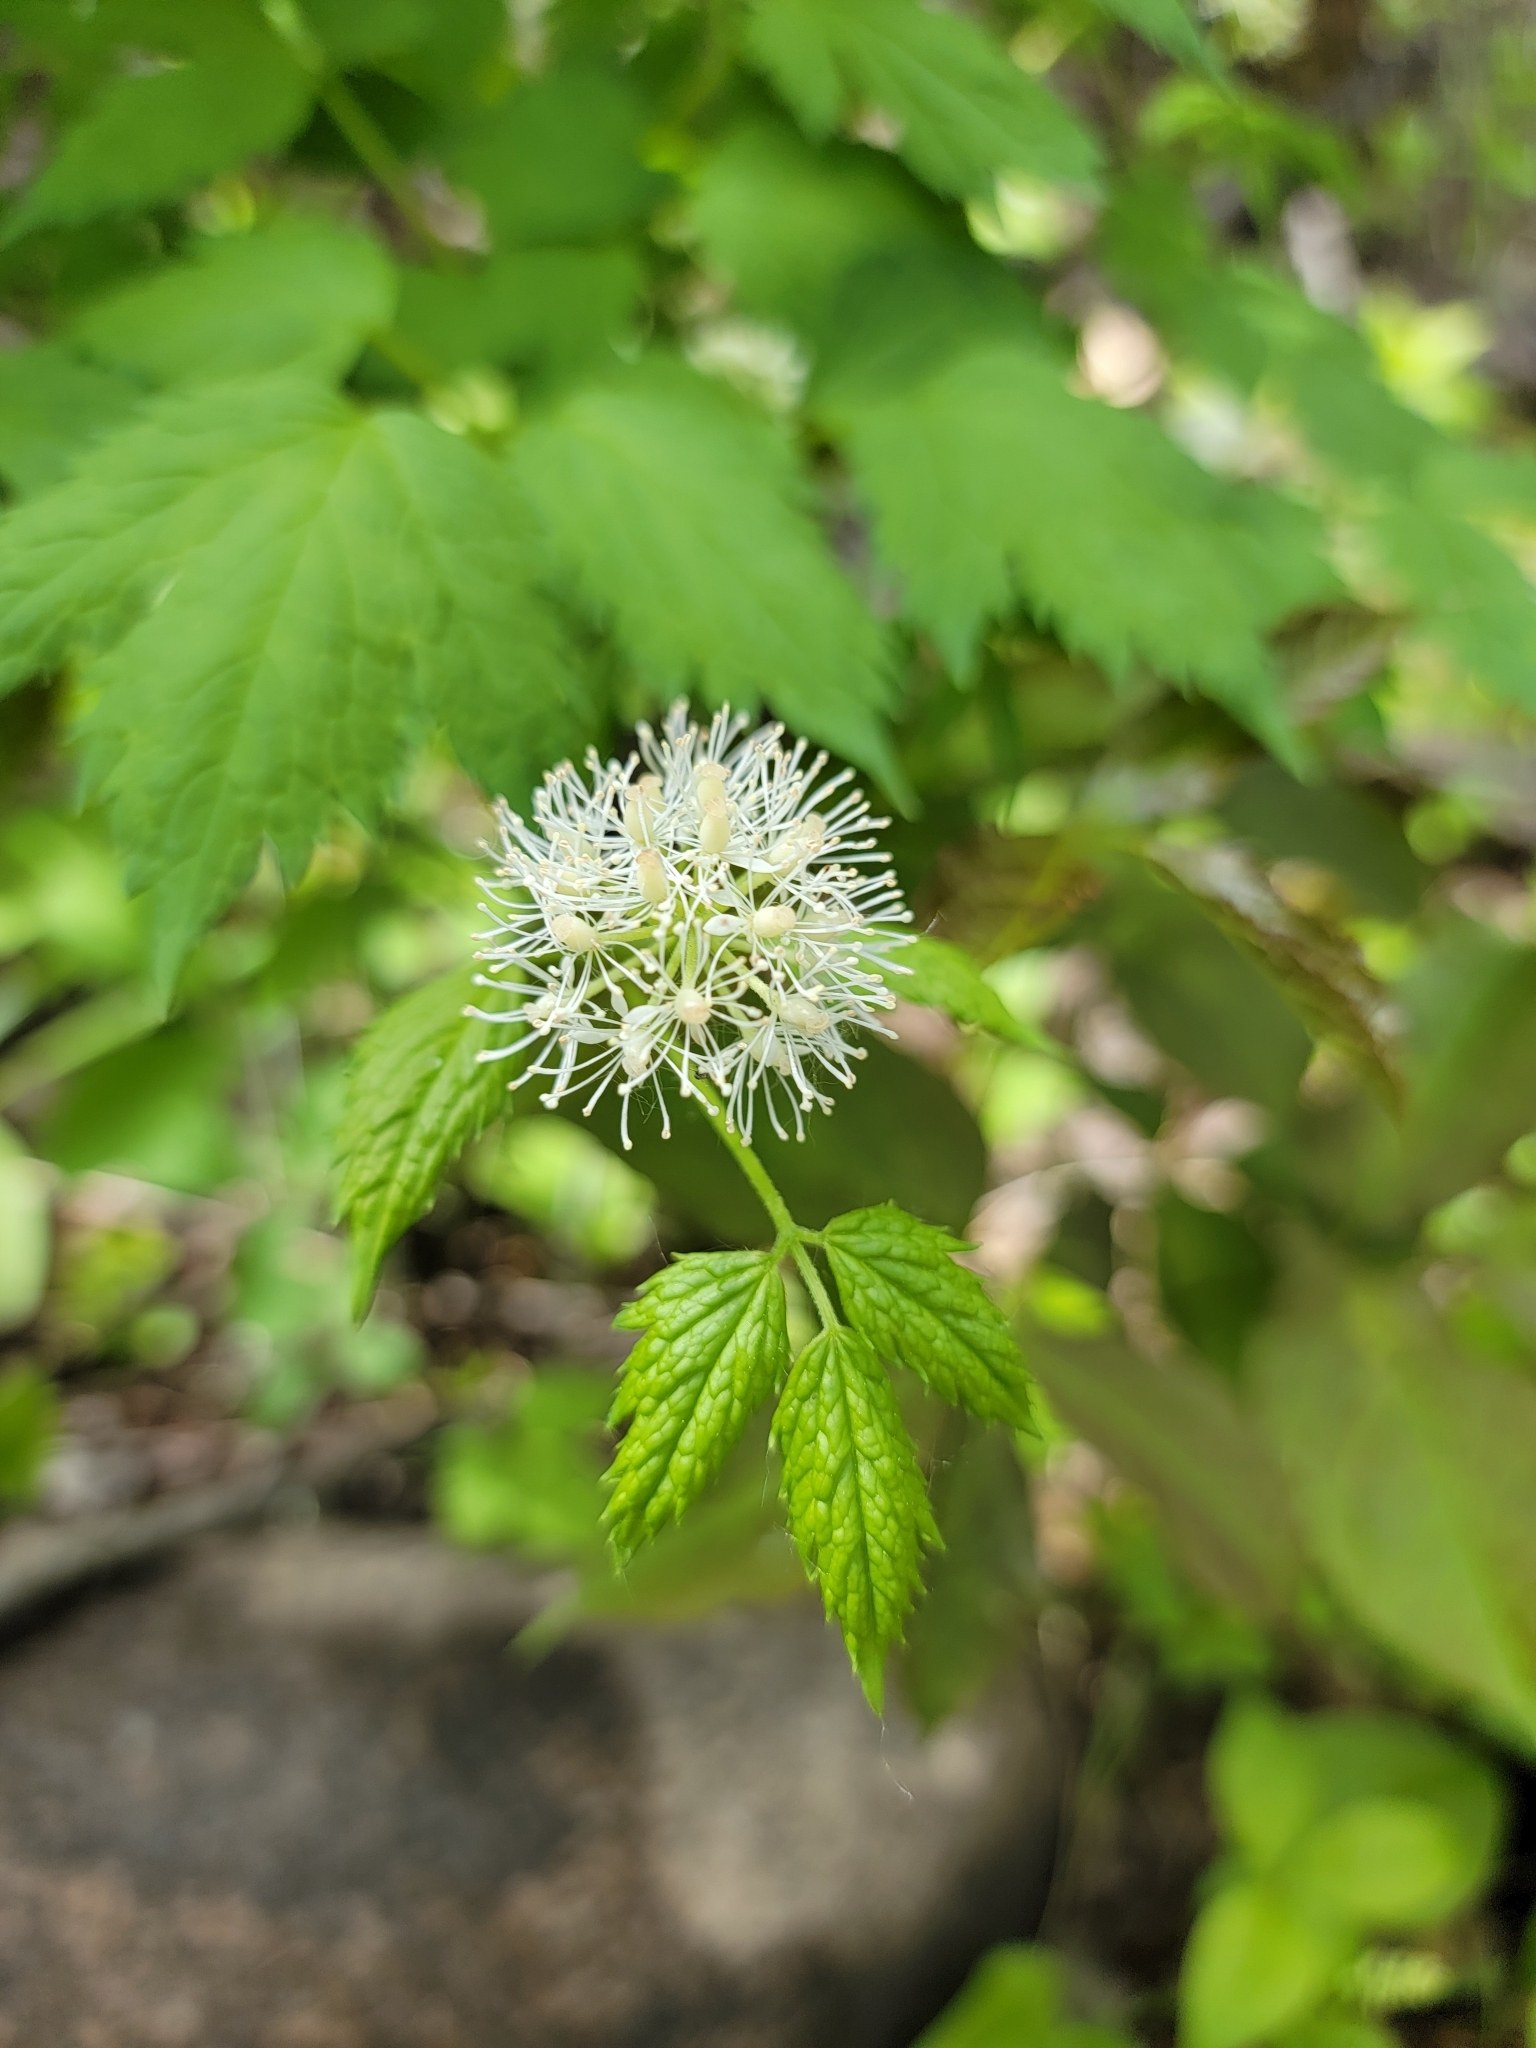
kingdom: Plantae
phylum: Tracheophyta
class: Magnoliopsida
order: Ranunculales
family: Ranunculaceae
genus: Actaea
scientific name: Actaea rubra
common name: Red baneberry
